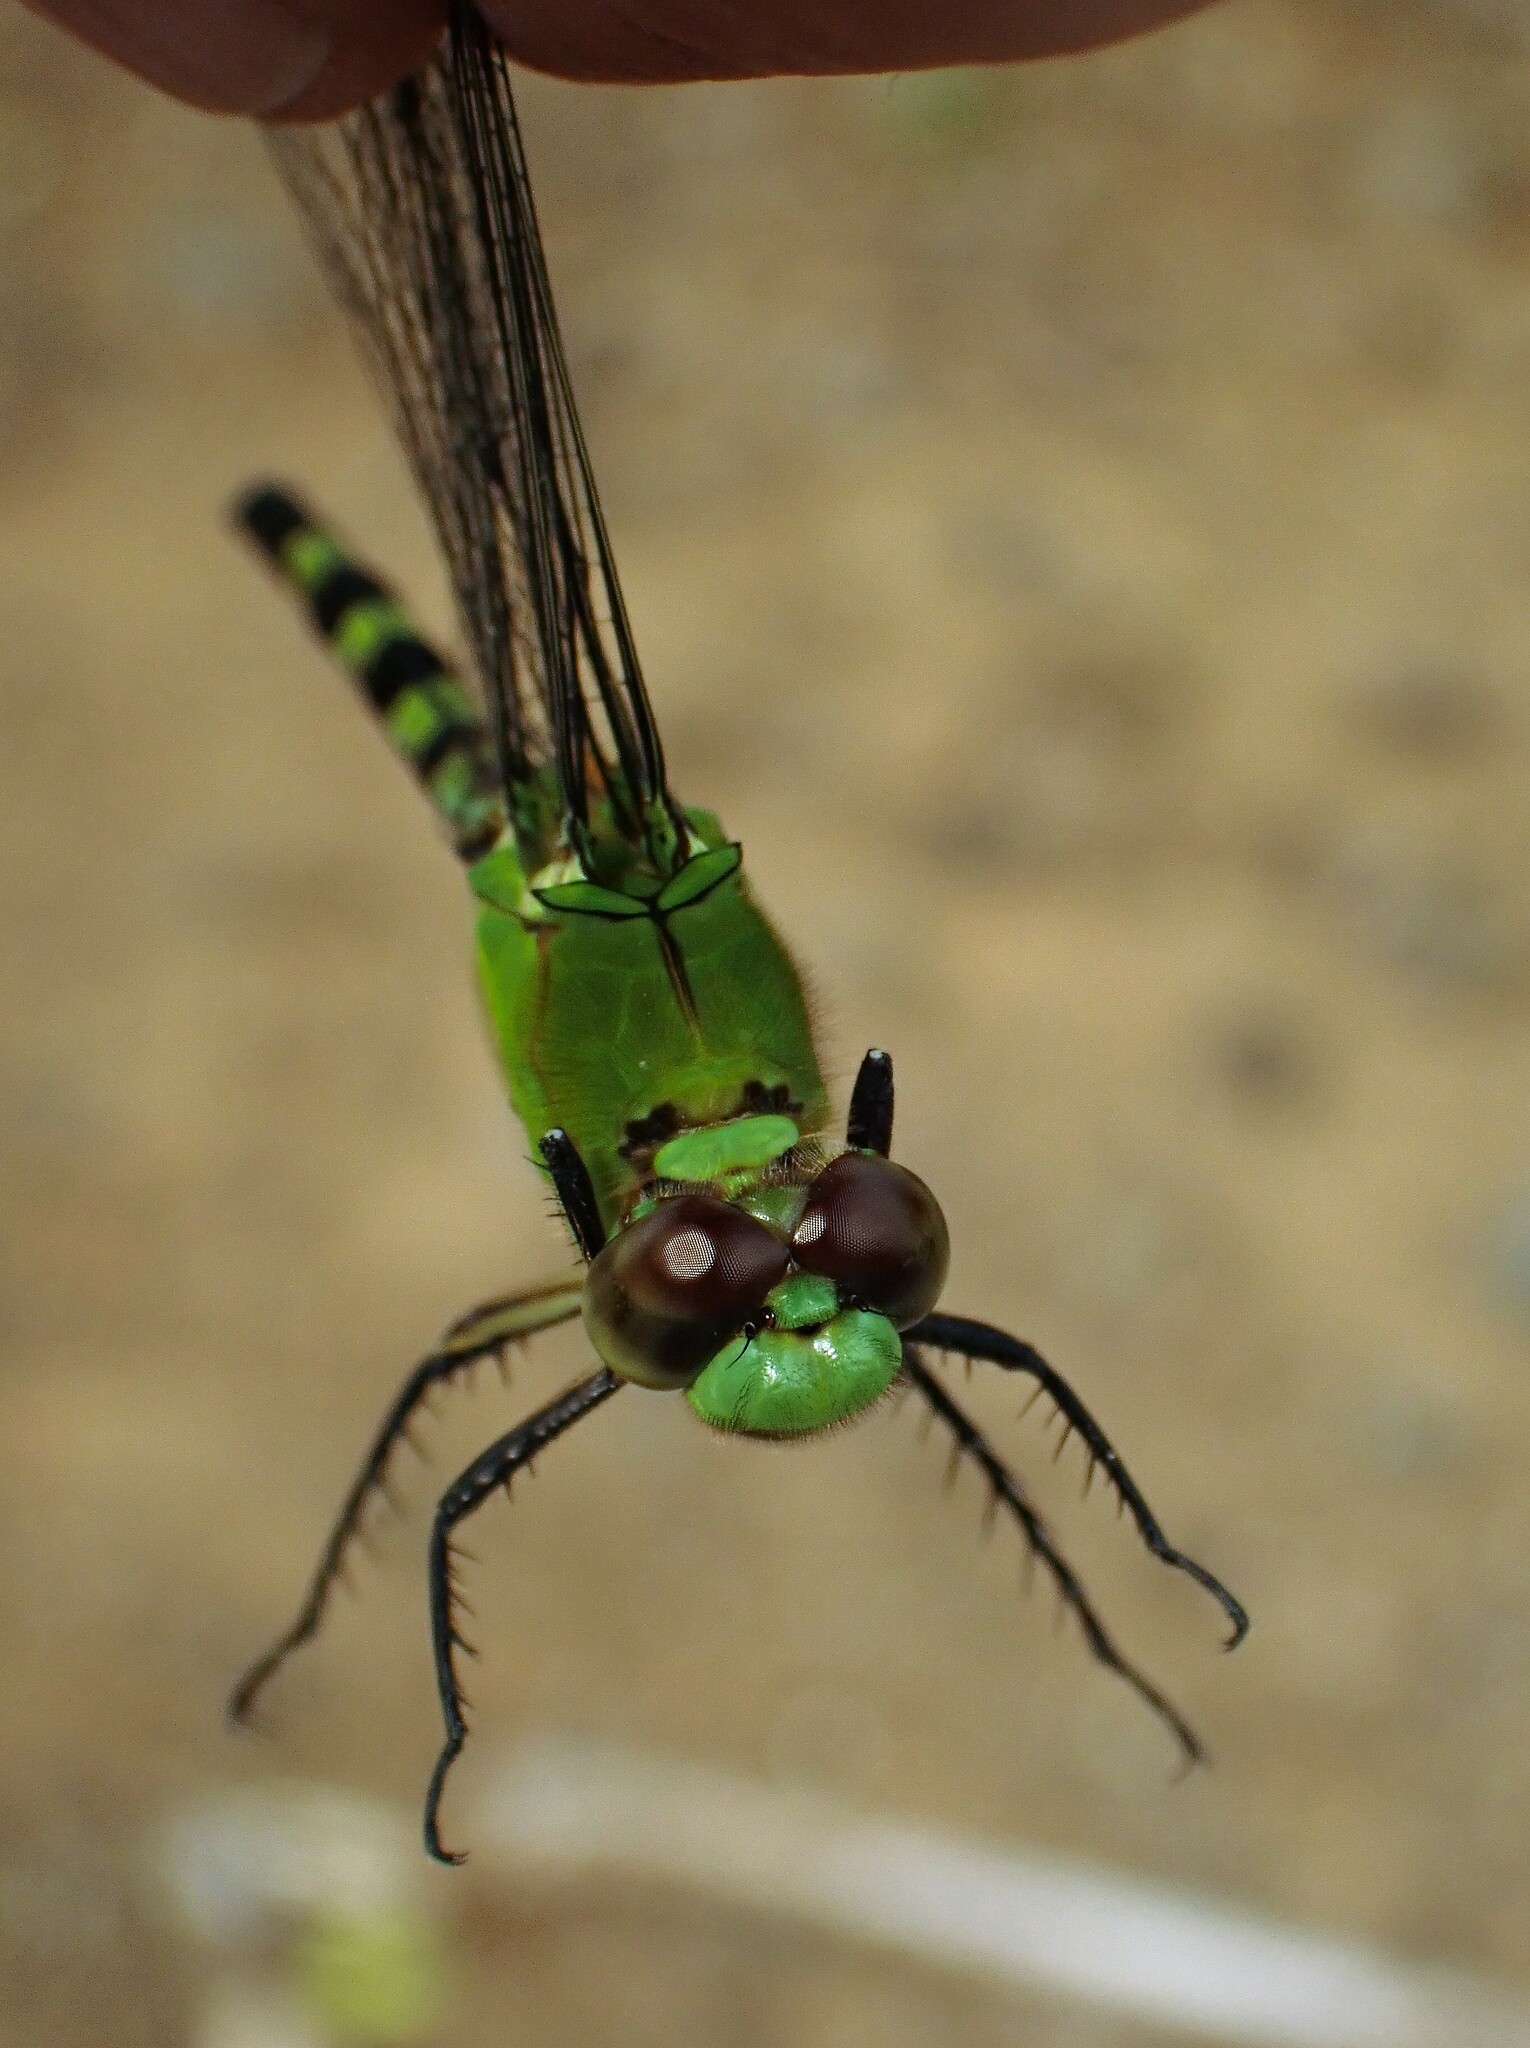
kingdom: Animalia
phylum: Arthropoda
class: Insecta
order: Odonata
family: Libellulidae
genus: Erythemis
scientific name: Erythemis vesiculosa
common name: Great pondhawk
